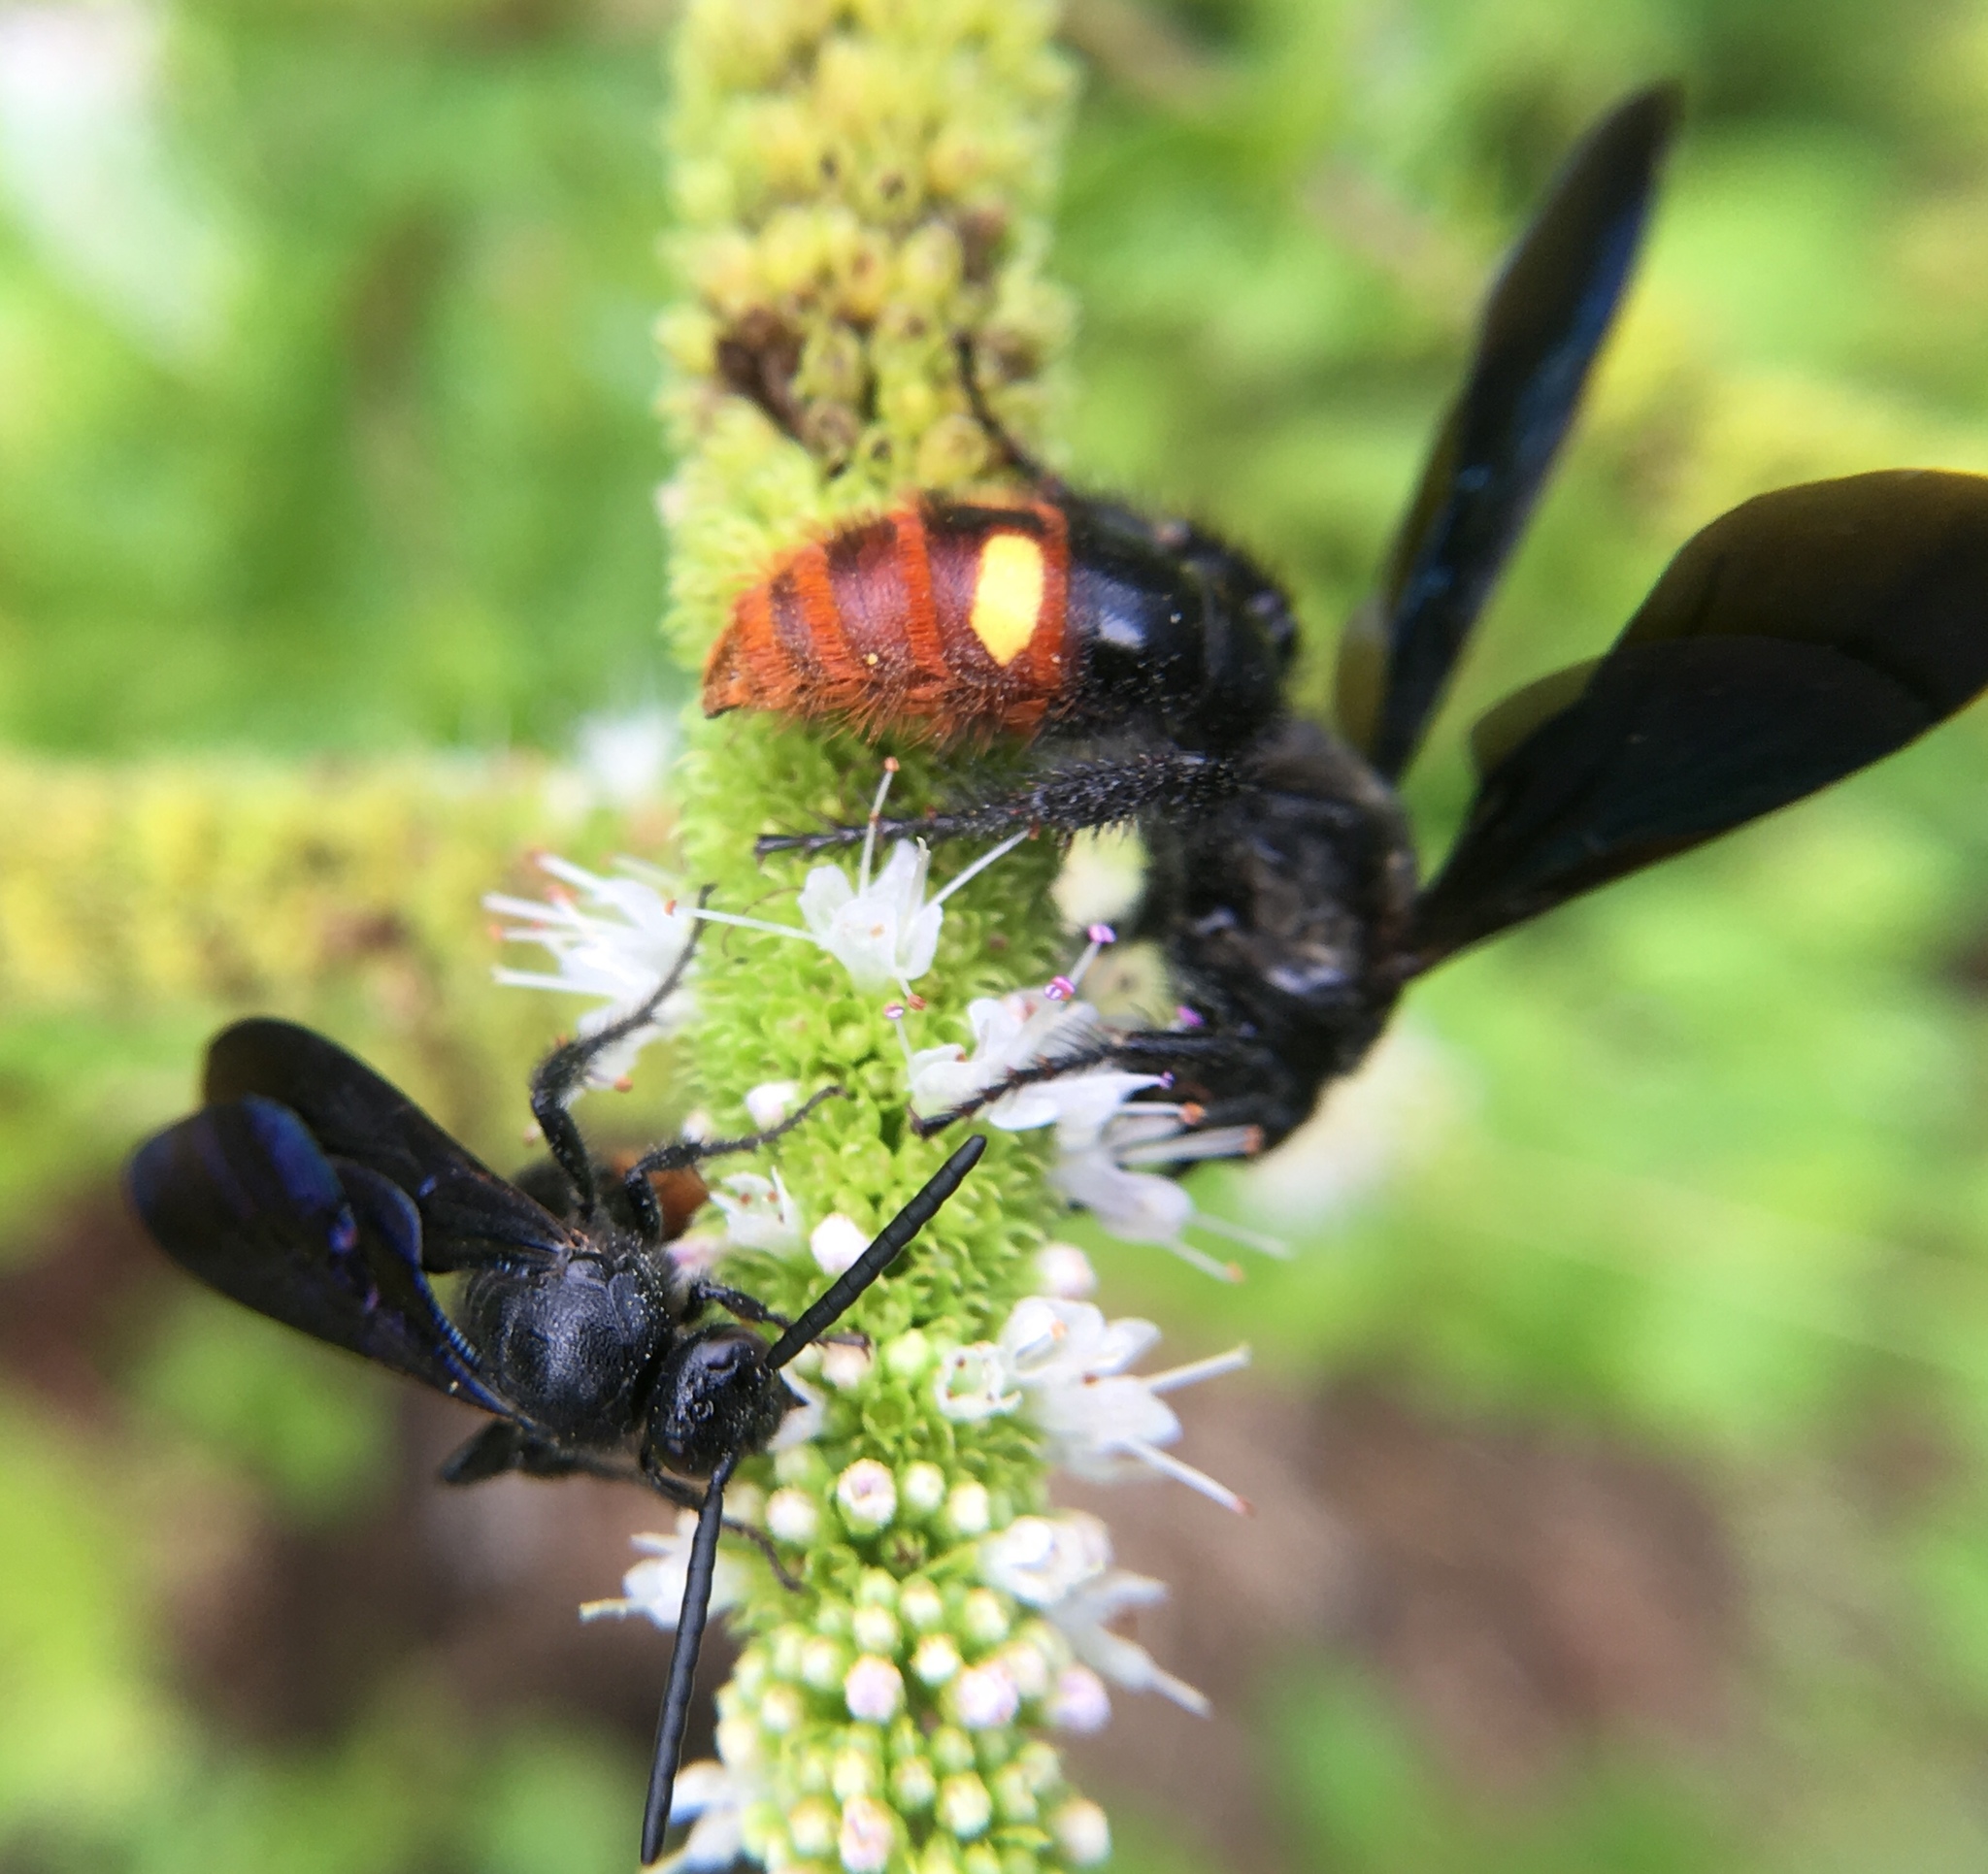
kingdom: Animalia
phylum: Arthropoda
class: Insecta
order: Hymenoptera
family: Scoliidae
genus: Scolia
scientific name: Scolia dubia
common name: Blue-winged scoliid wasp
